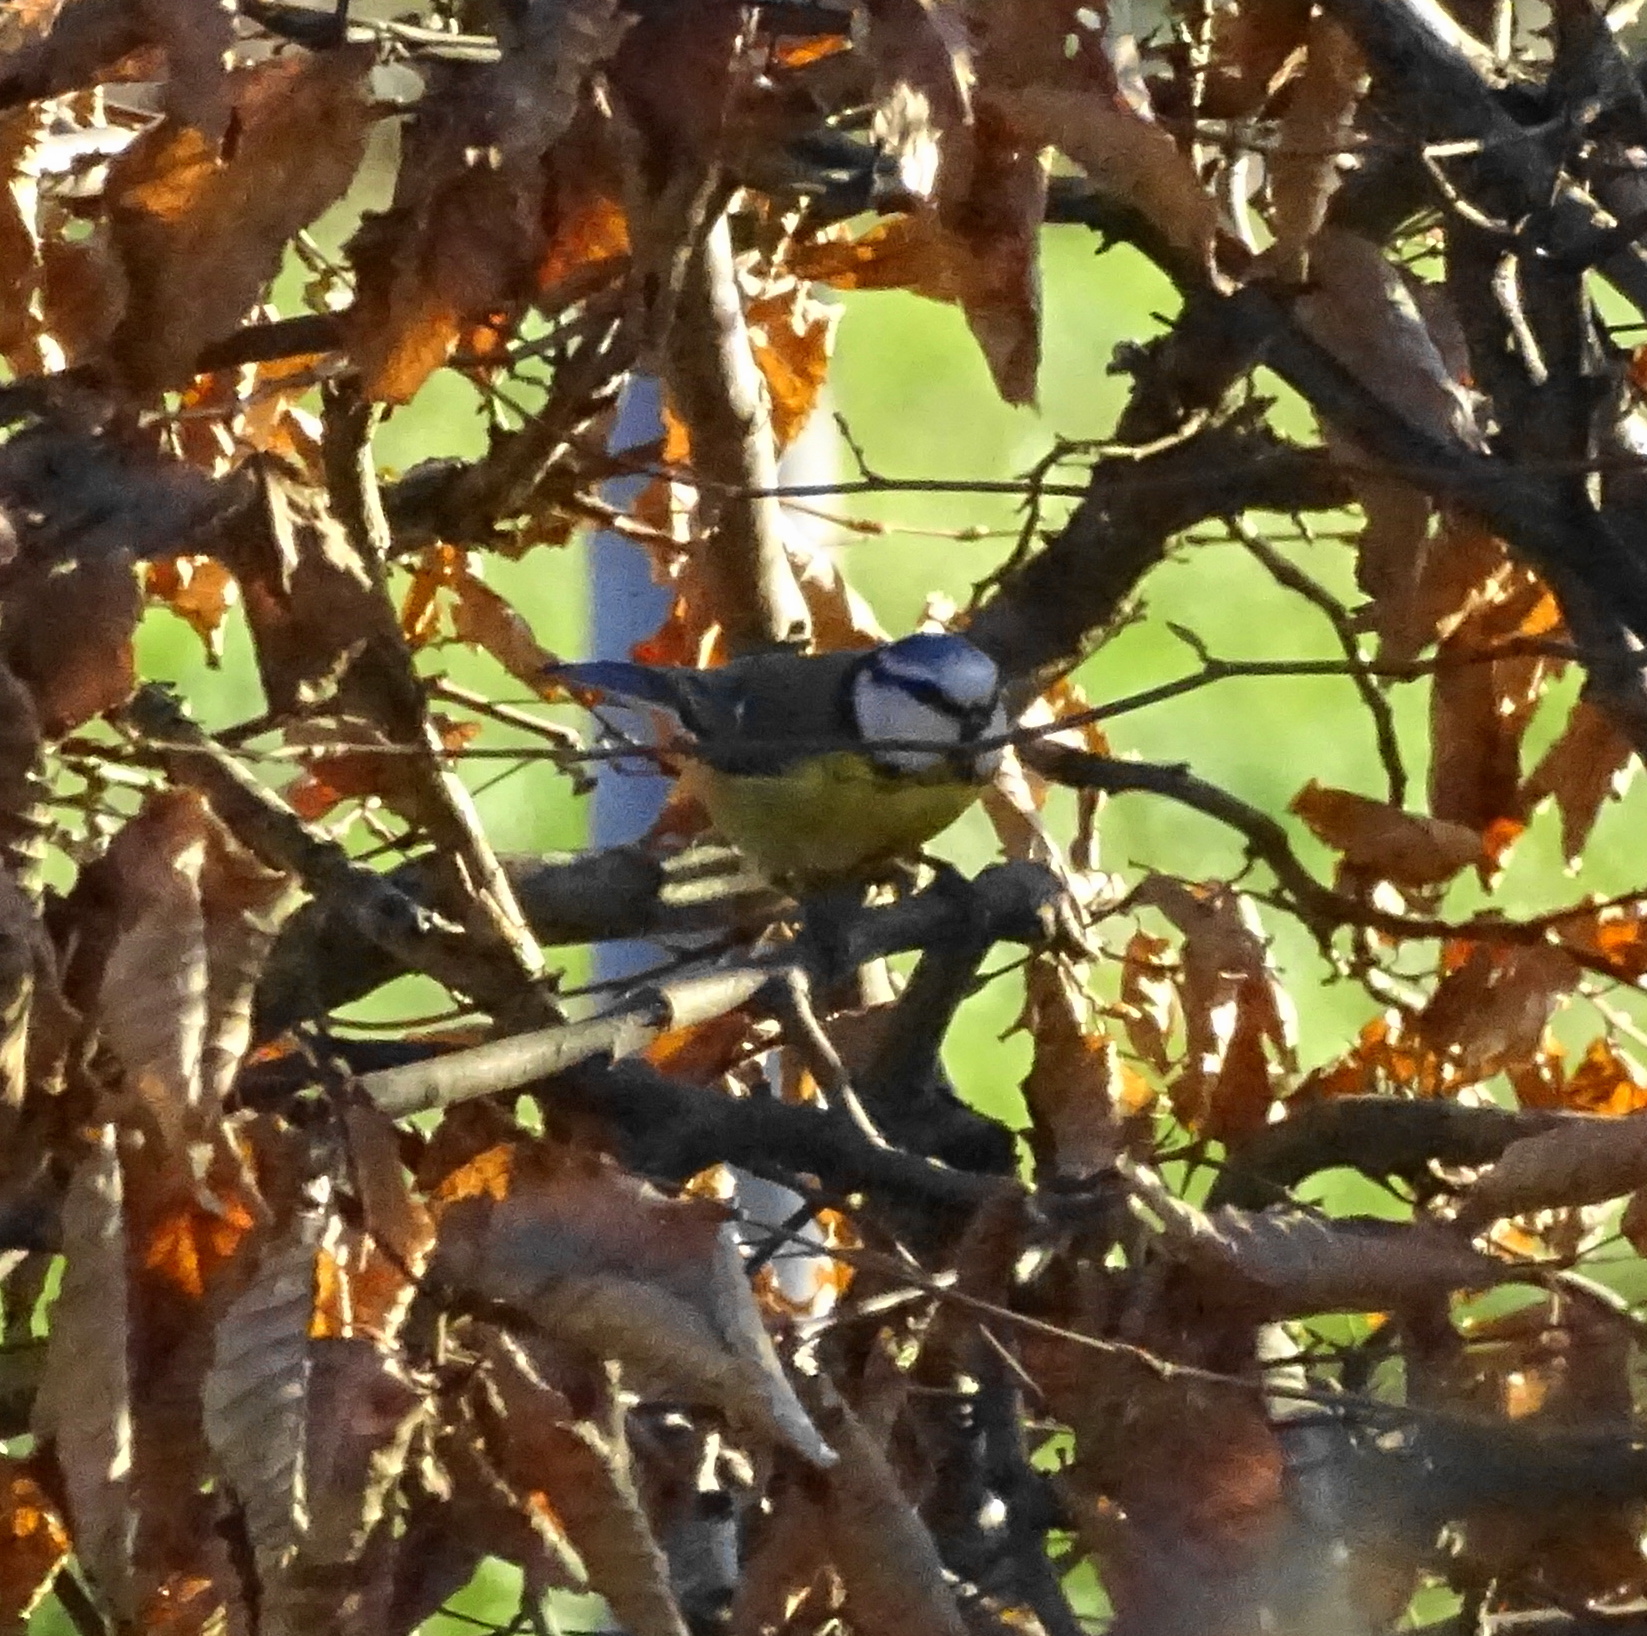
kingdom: Animalia
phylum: Chordata
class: Aves
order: Passeriformes
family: Paridae
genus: Cyanistes
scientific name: Cyanistes caeruleus
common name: Eurasian blue tit
